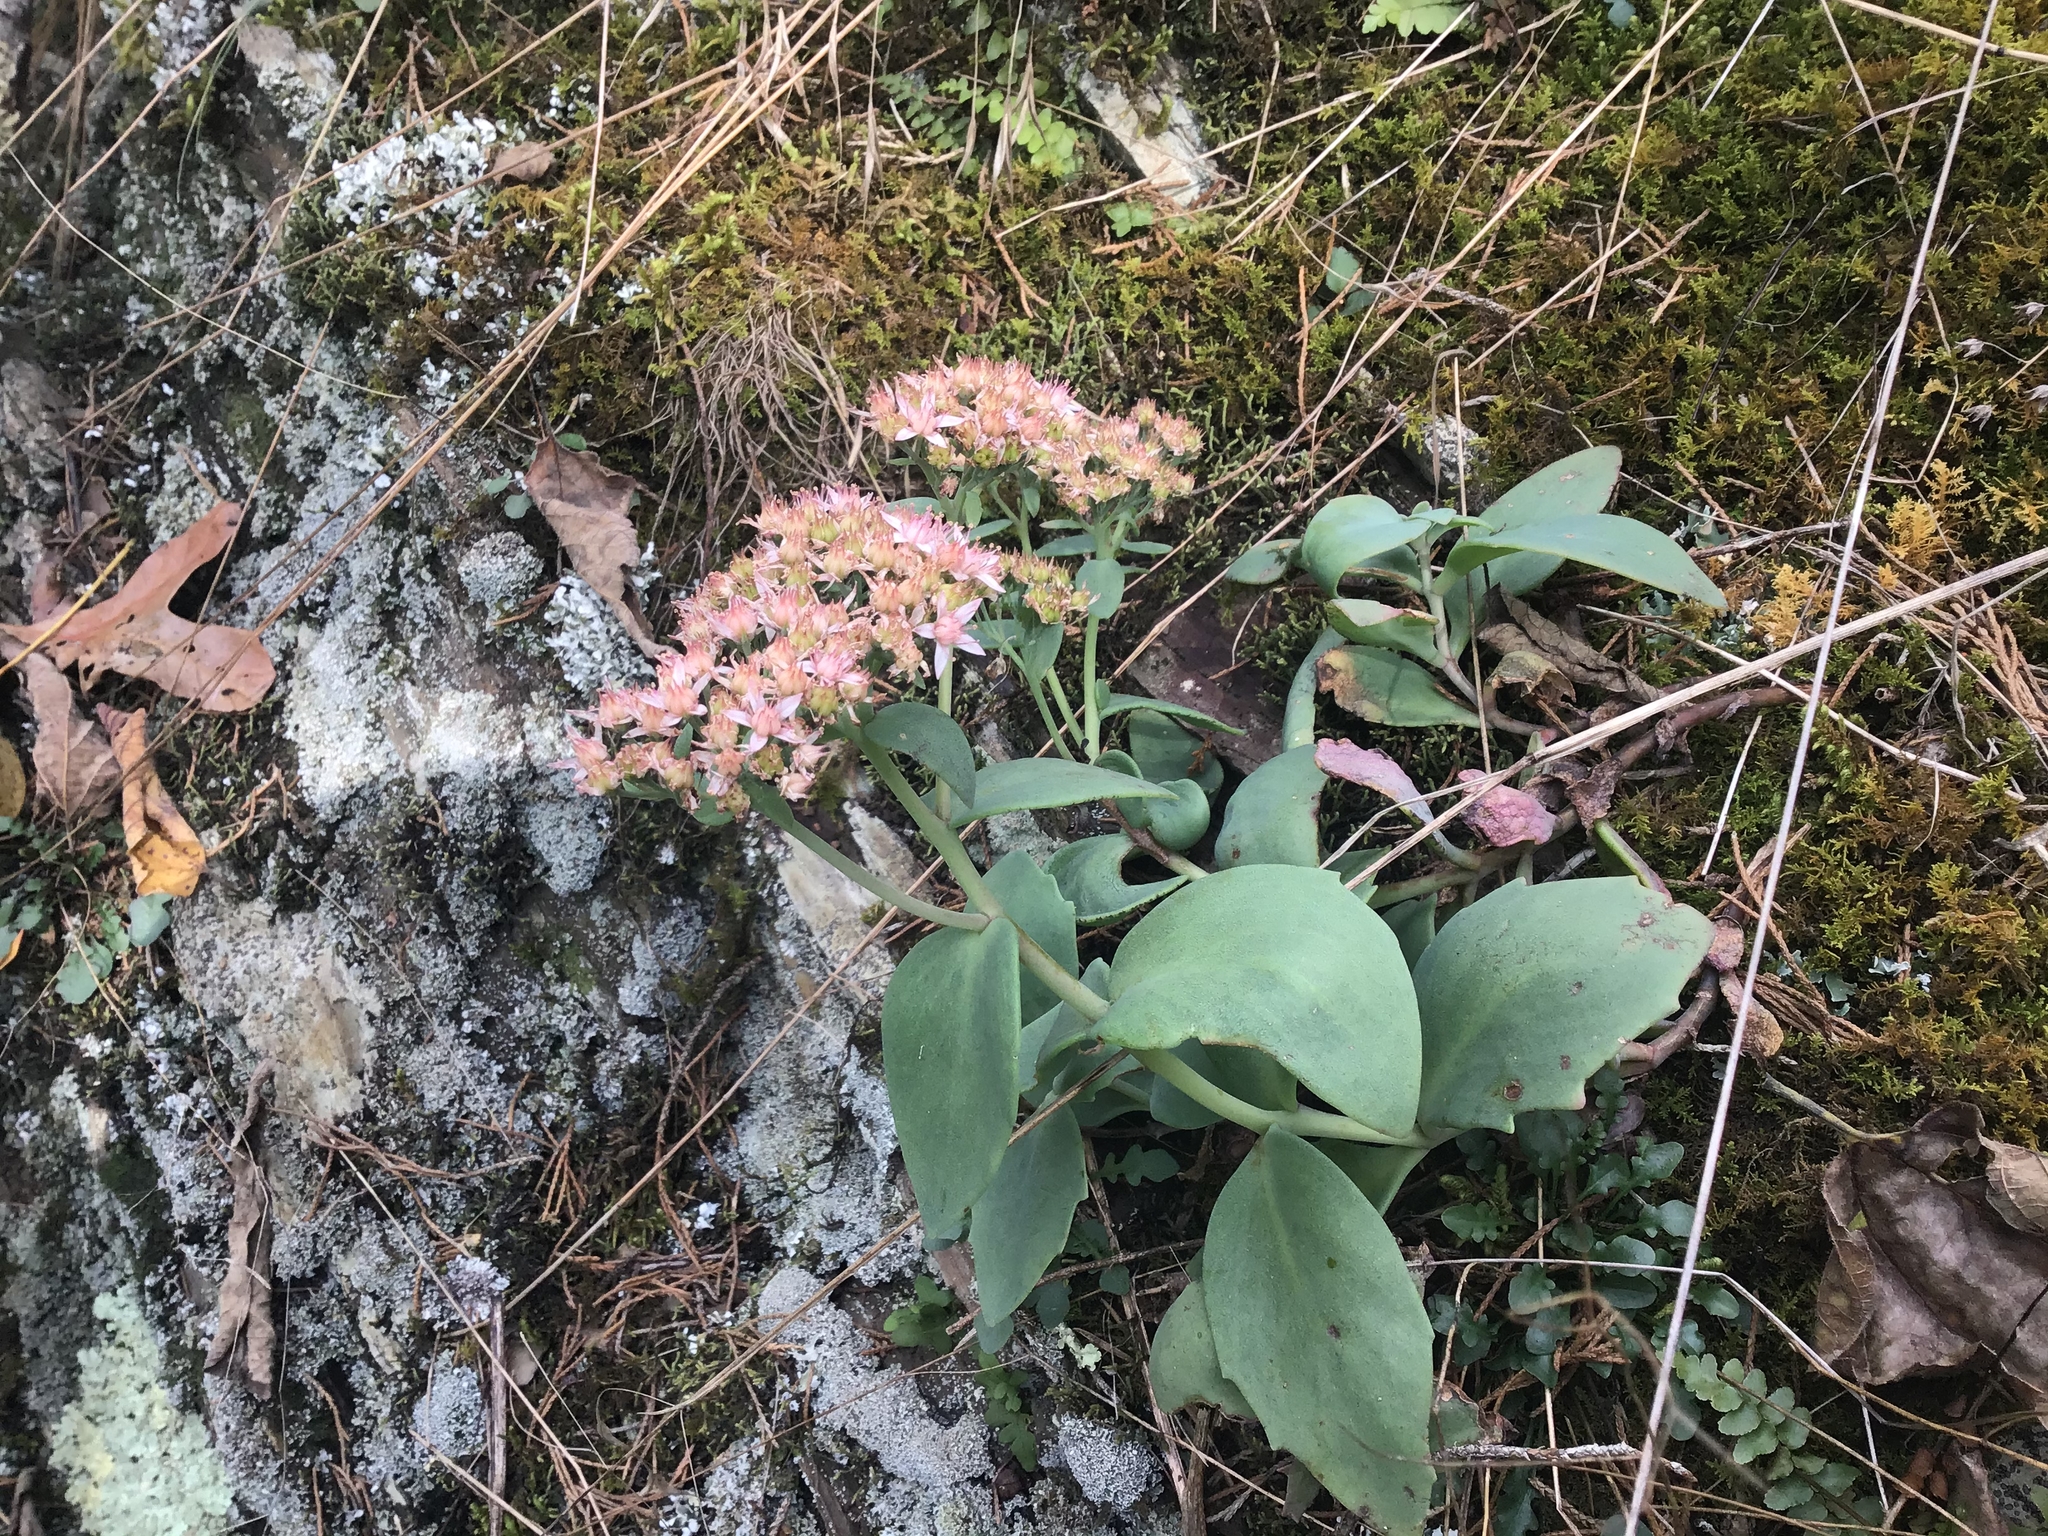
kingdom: Plantae
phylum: Tracheophyta
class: Magnoliopsida
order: Saxifragales
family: Crassulaceae
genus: Hylotelephium
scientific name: Hylotelephium telephioides
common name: Allegheny stonecrop
